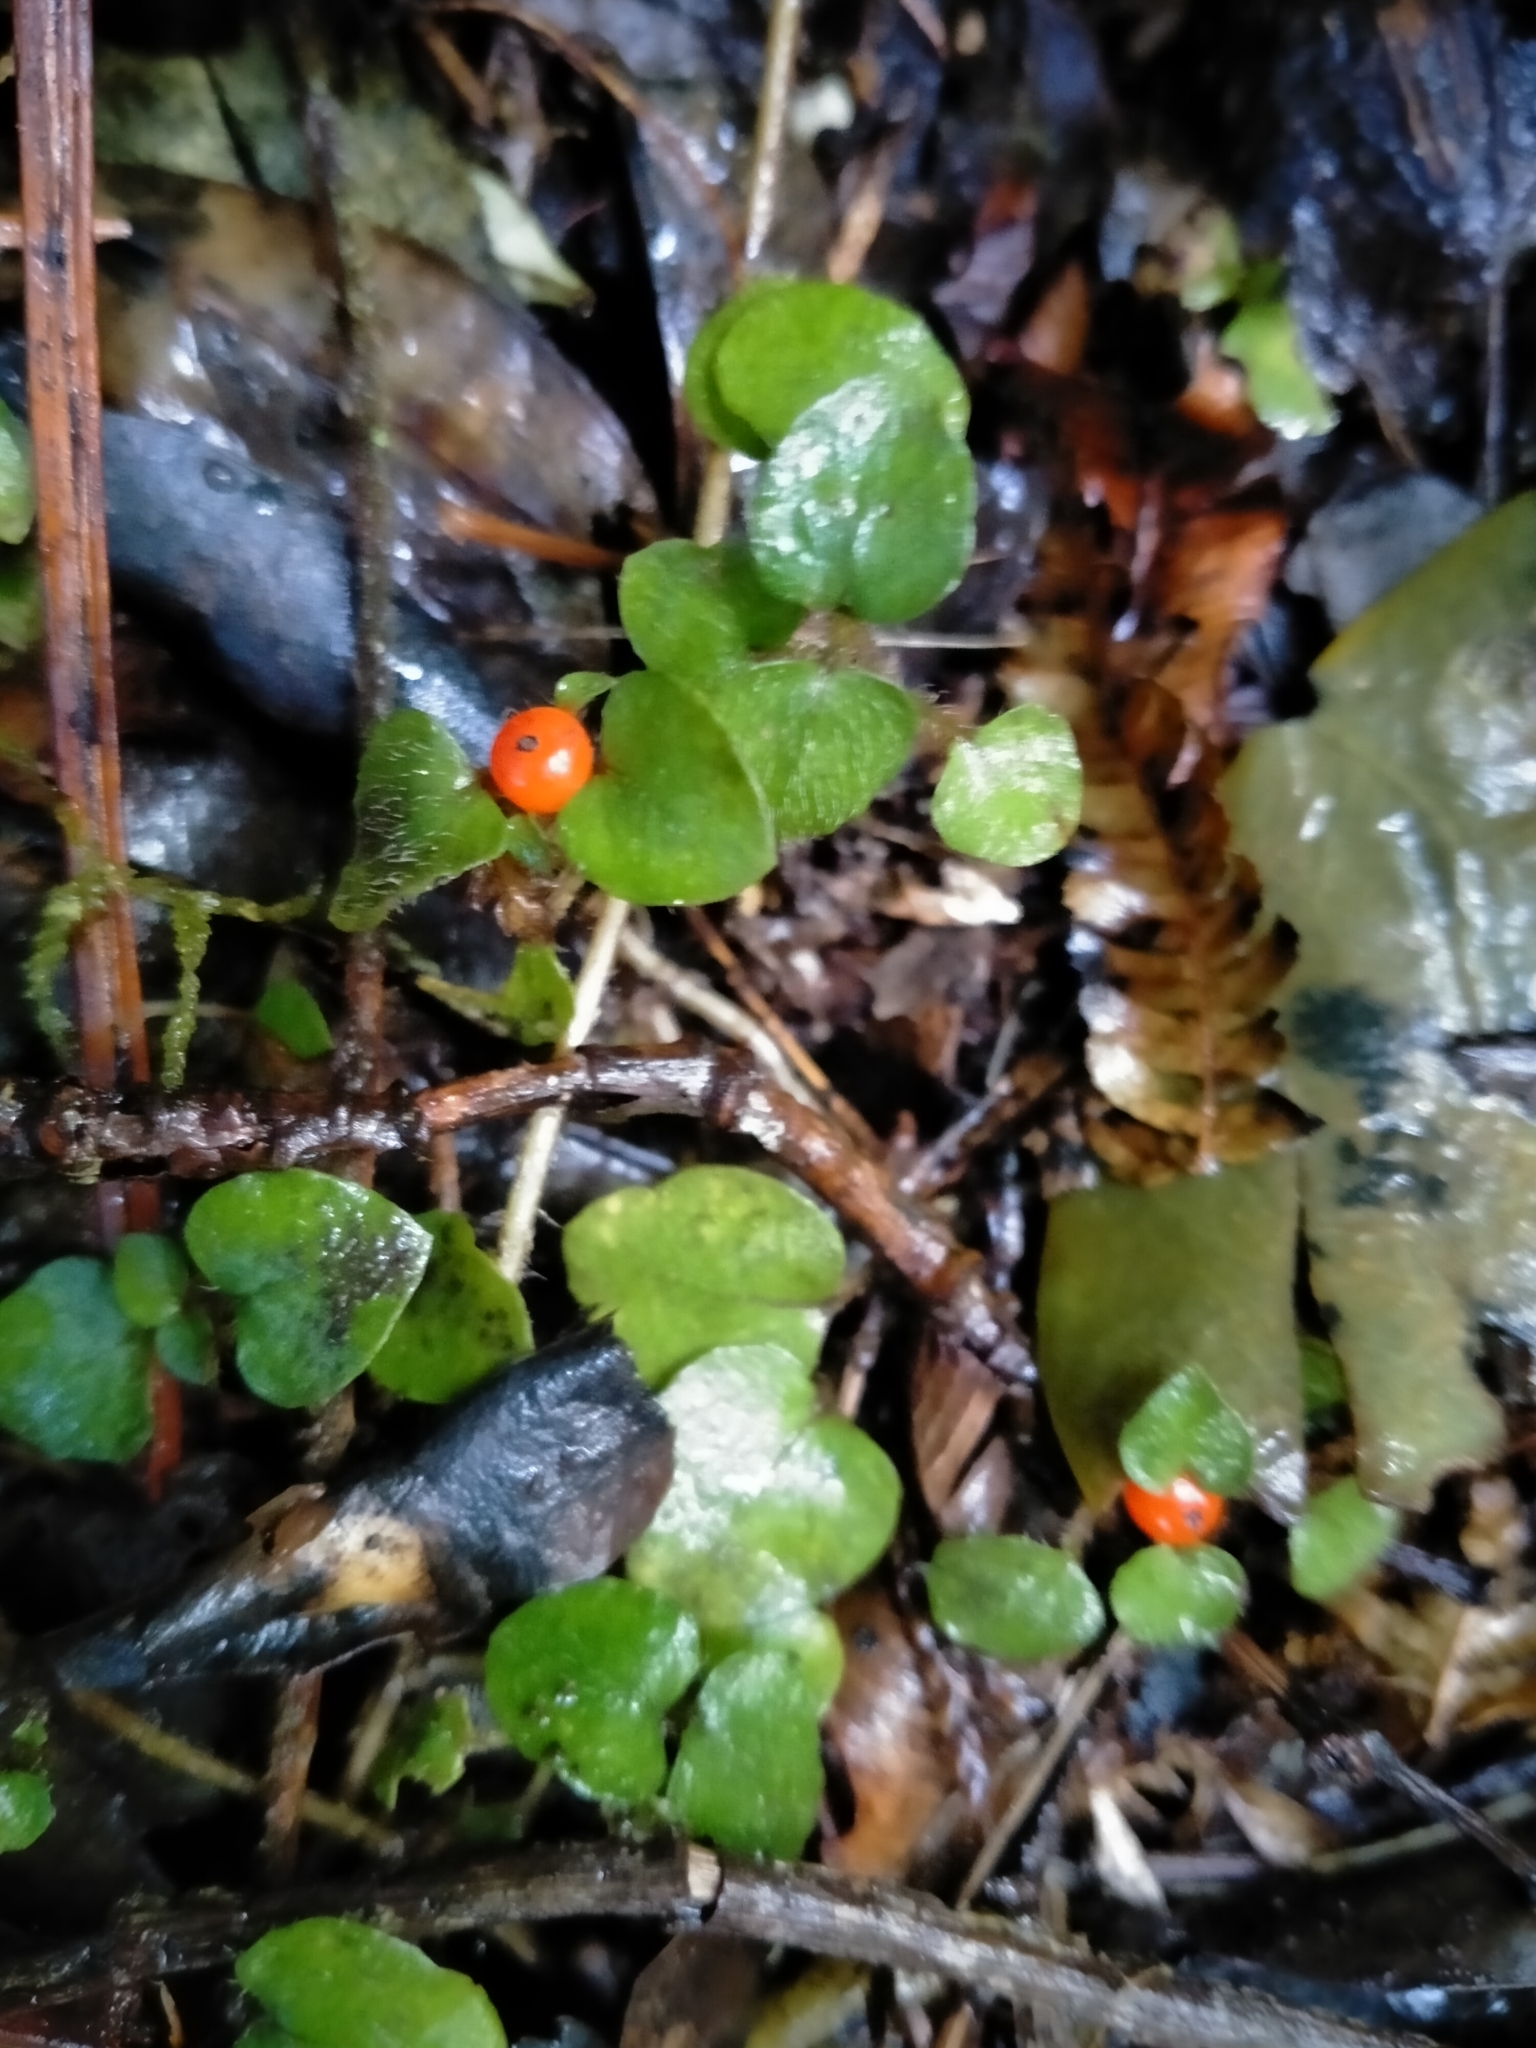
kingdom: Plantae
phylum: Tracheophyta
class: Magnoliopsida
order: Gentianales
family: Rubiaceae
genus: Nertera
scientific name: Nertera villosa
